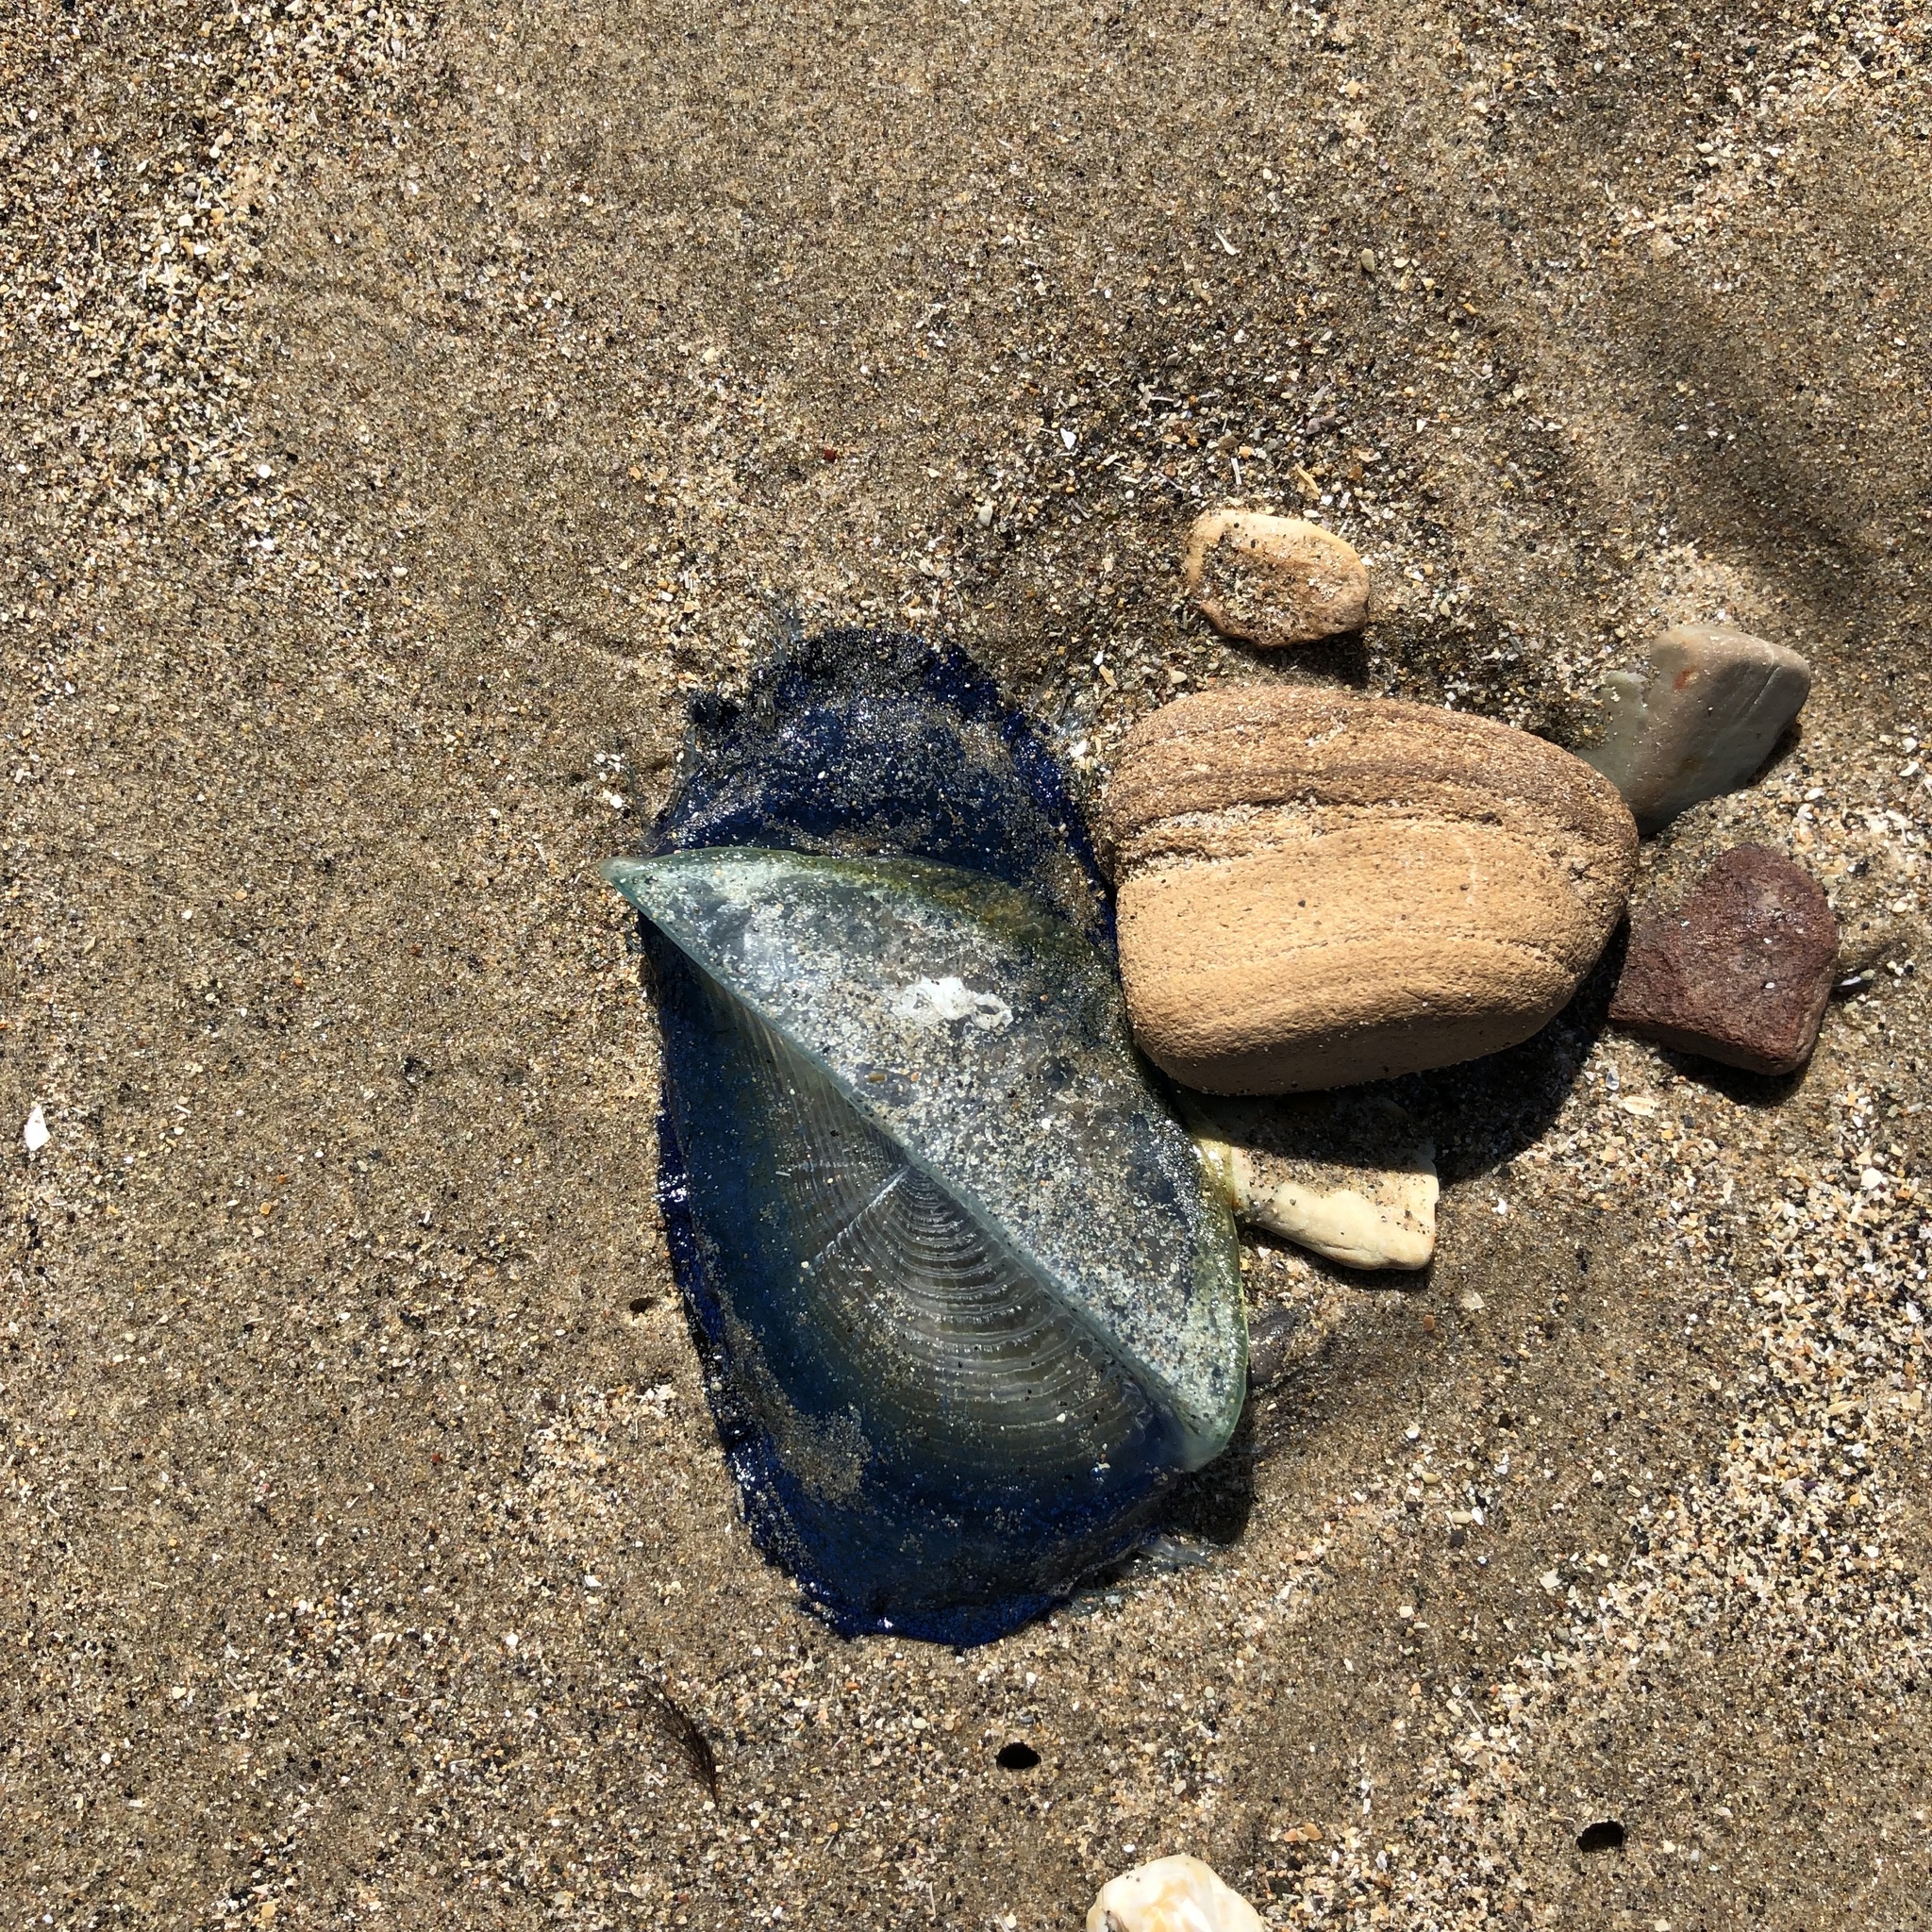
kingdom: Animalia
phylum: Cnidaria
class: Hydrozoa
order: Anthoathecata
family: Porpitidae
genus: Velella
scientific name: Velella velella
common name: By-the-wind-sailor
